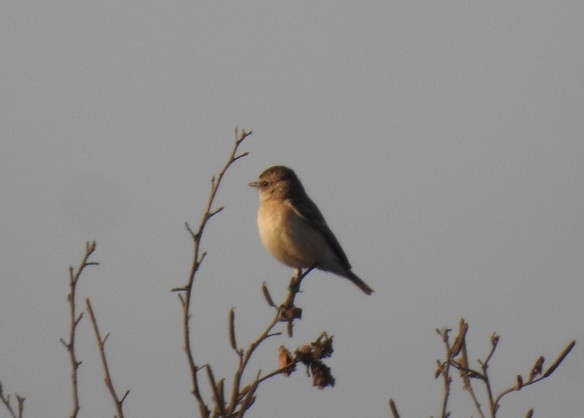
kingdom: Animalia
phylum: Chordata
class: Aves
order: Passeriformes
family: Muscicapidae
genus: Saxicola
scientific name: Saxicola maurus
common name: Siberian stonechat
